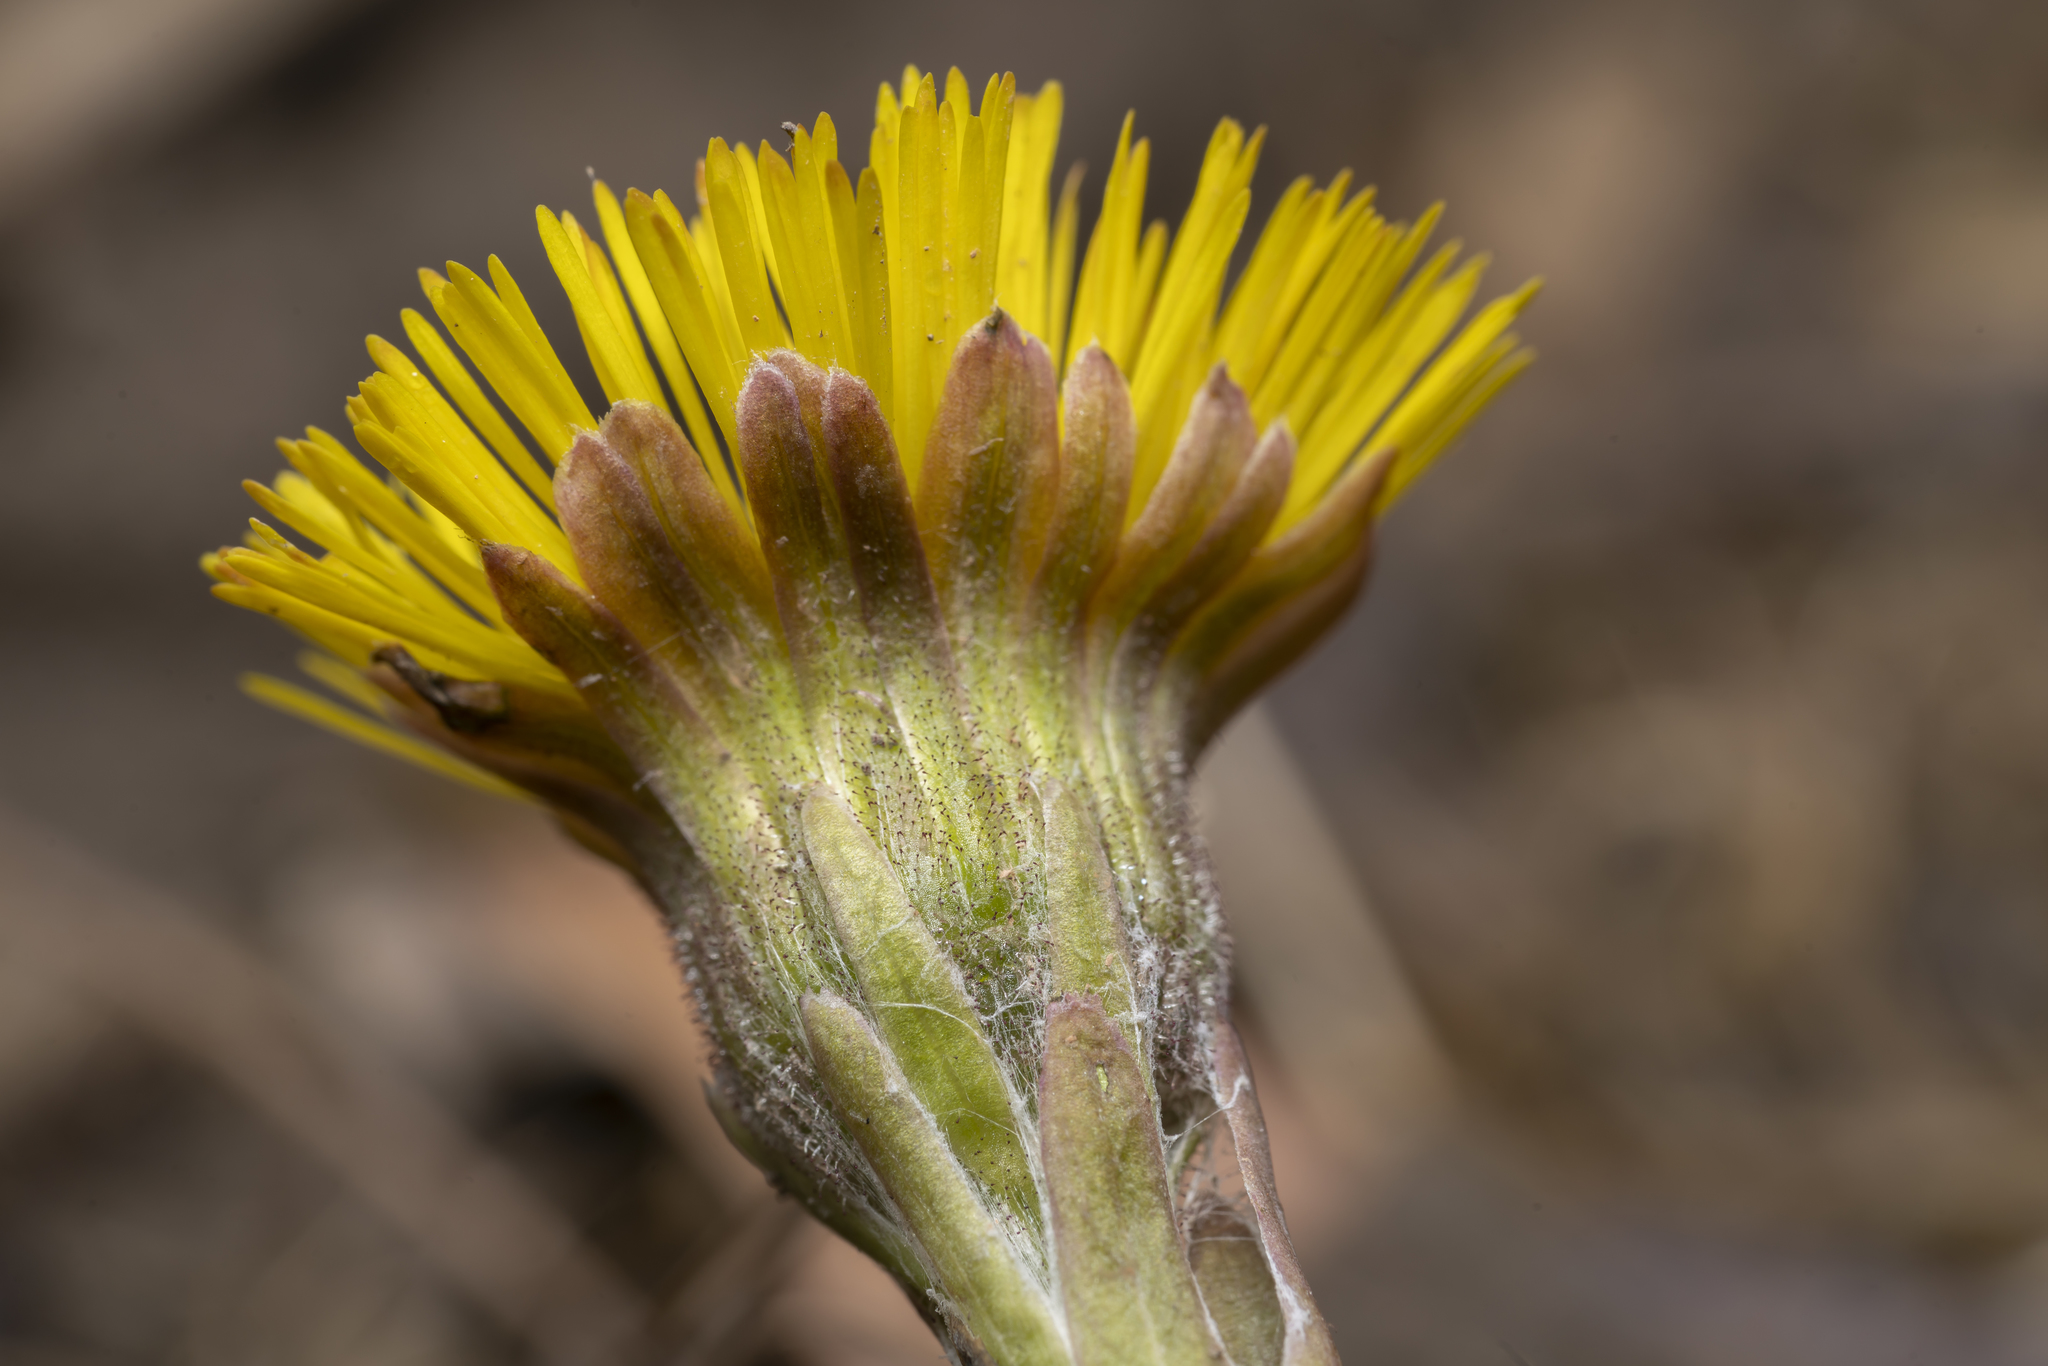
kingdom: Plantae
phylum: Tracheophyta
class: Magnoliopsida
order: Asterales
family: Asteraceae
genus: Tussilago
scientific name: Tussilago farfara
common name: Coltsfoot
